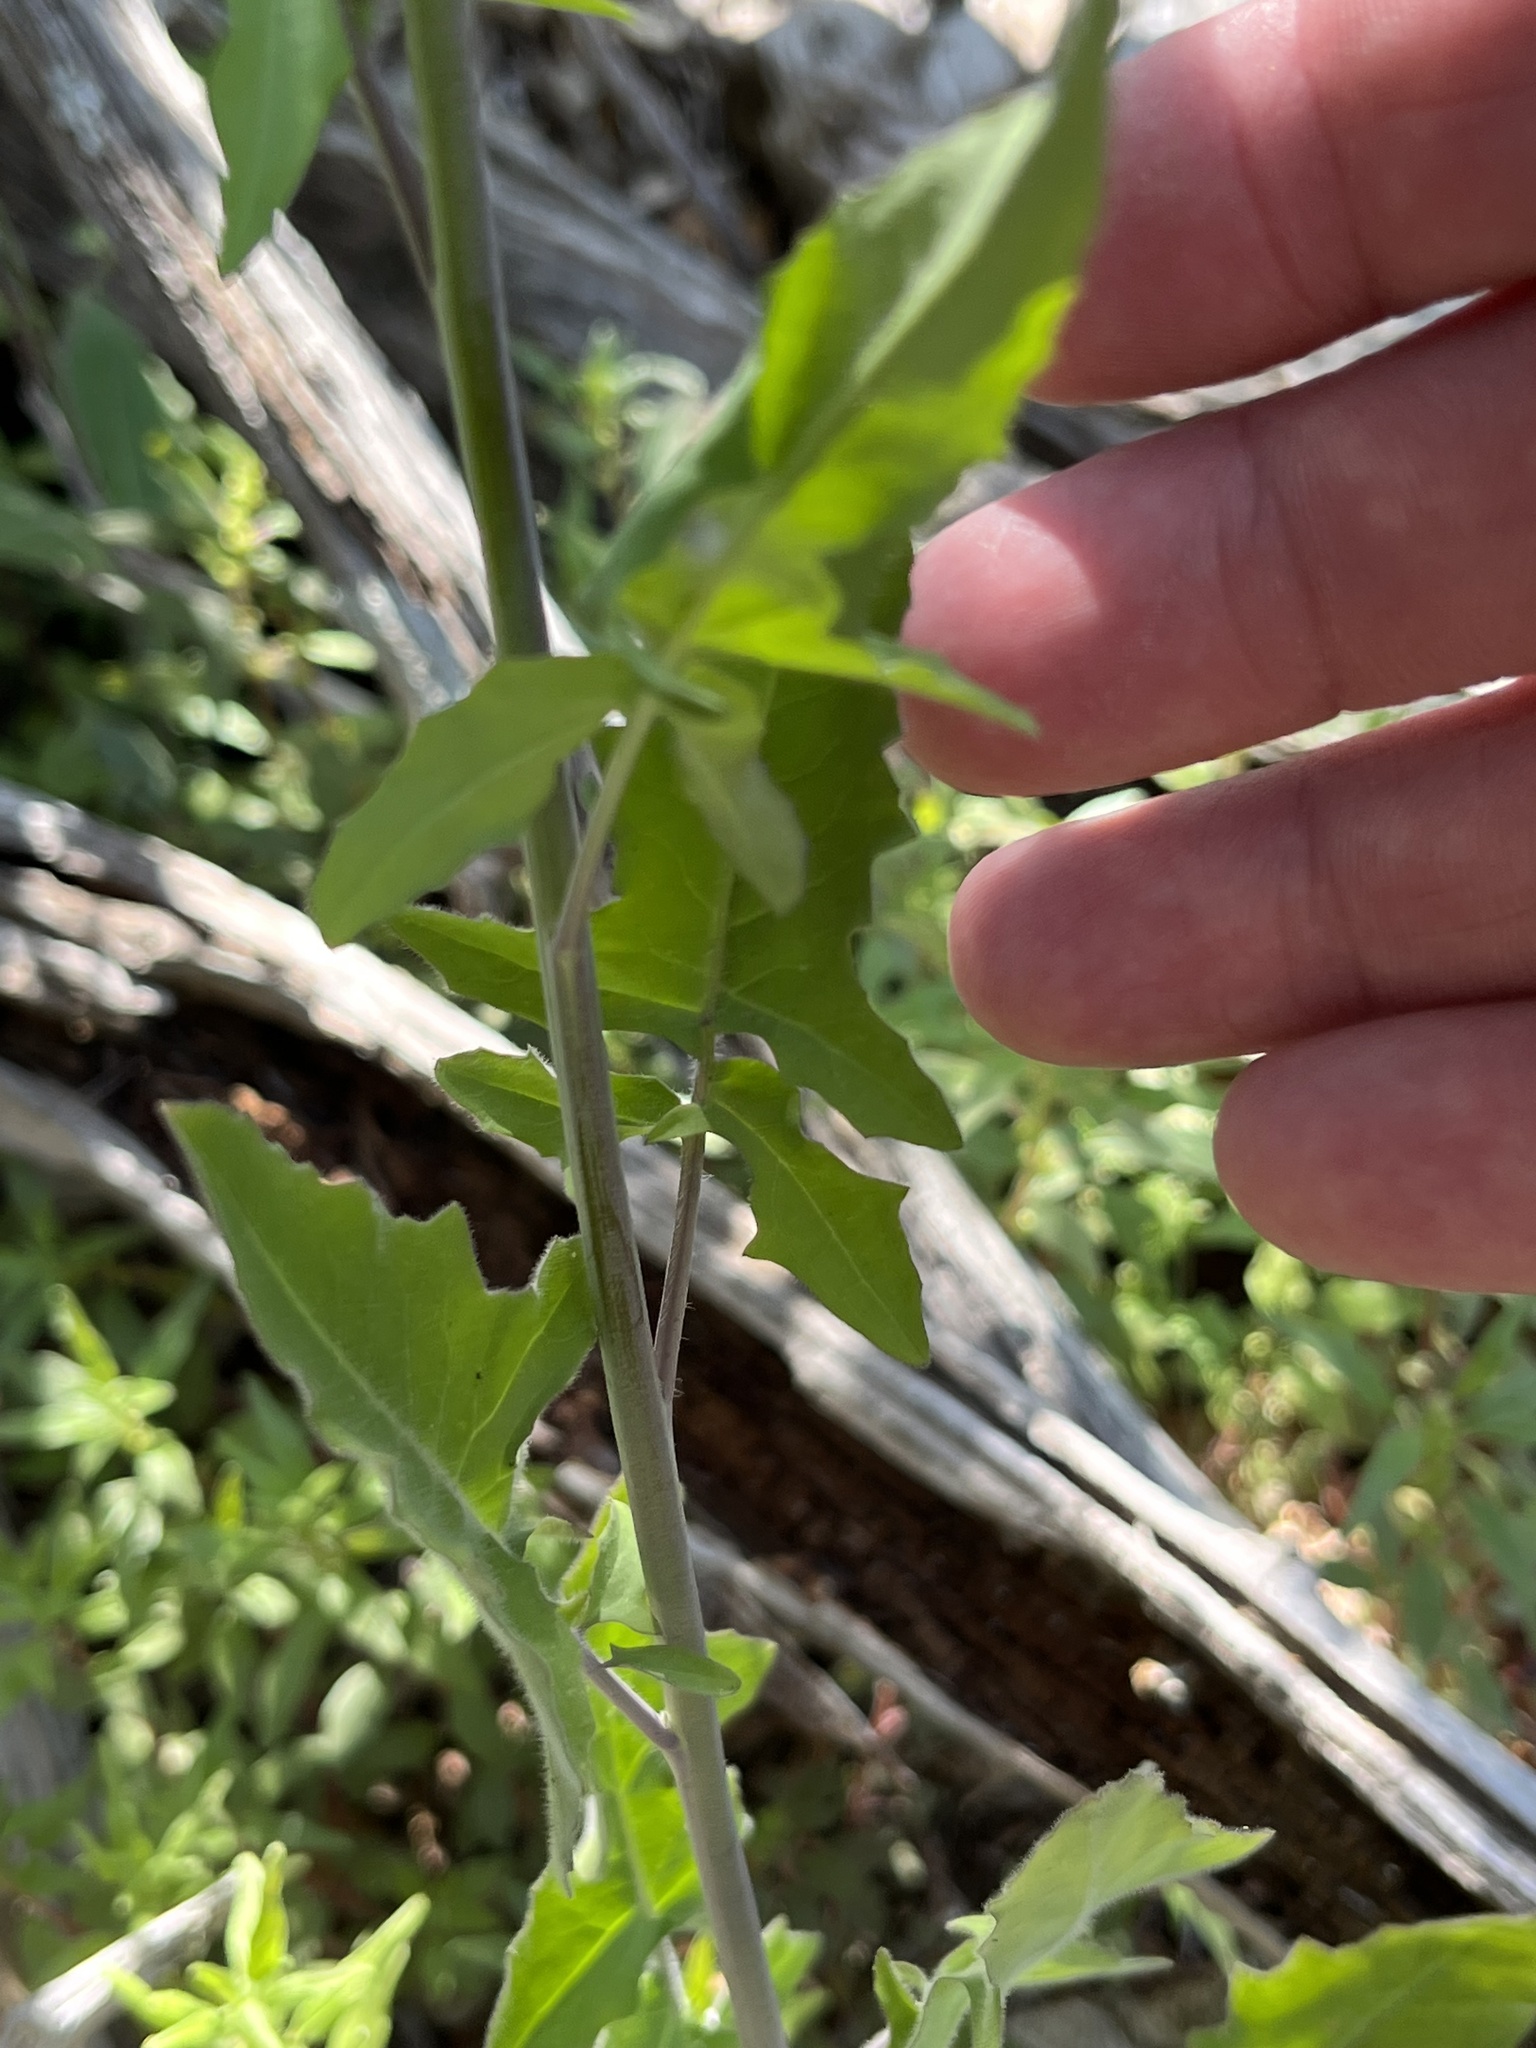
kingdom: Plantae
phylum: Tracheophyta
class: Magnoliopsida
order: Brassicales
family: Brassicaceae
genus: Streptanthus
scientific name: Streptanthus petiolaris
